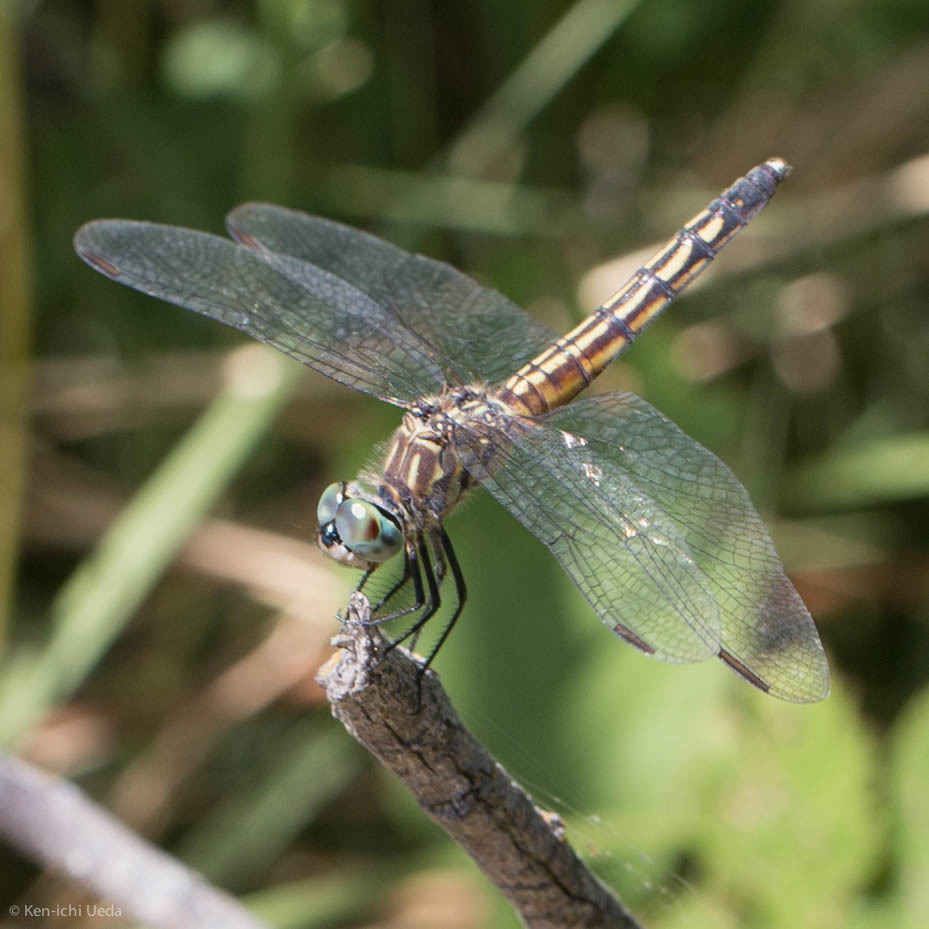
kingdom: Animalia
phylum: Arthropoda
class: Insecta
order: Odonata
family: Libellulidae
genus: Pachydiplax
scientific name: Pachydiplax longipennis
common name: Blue dasher
